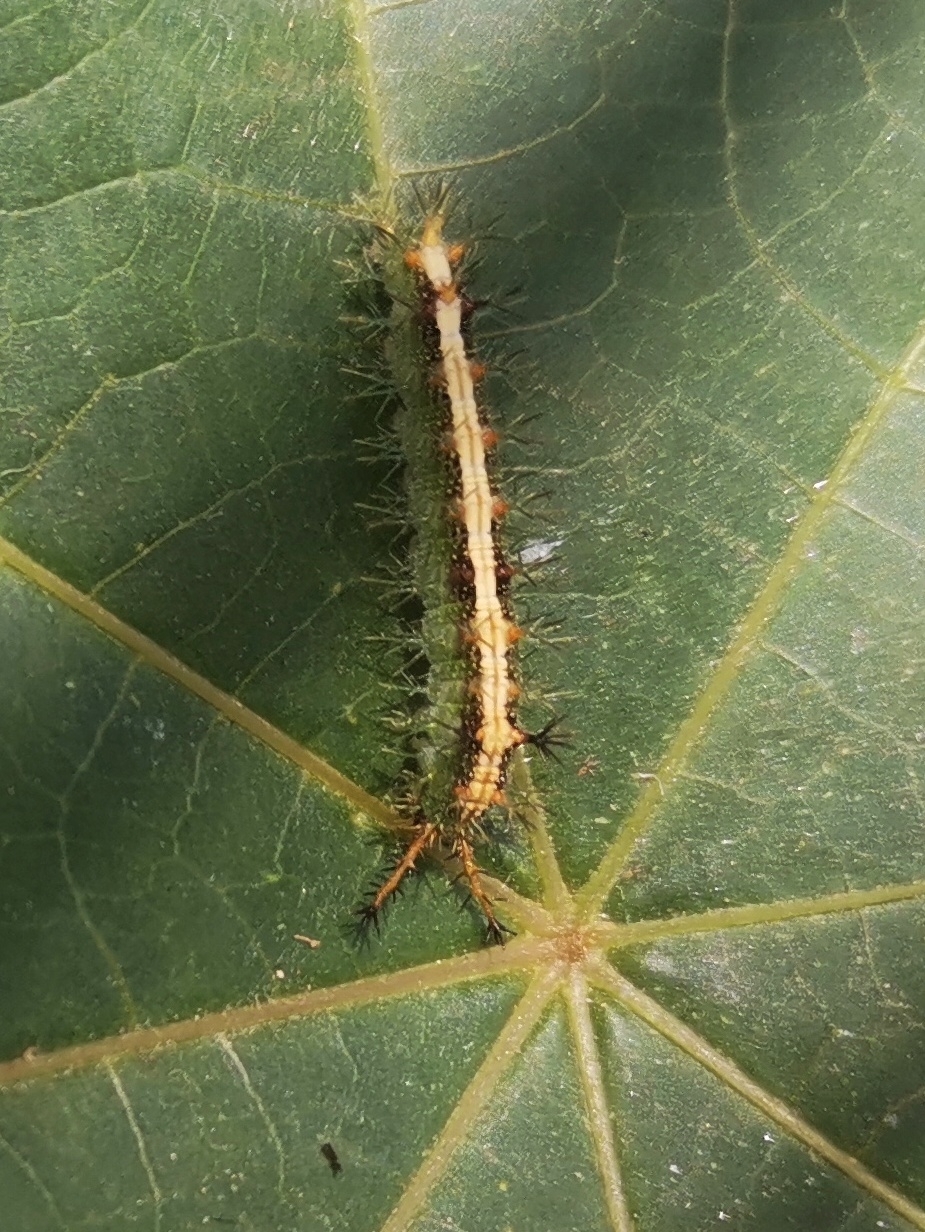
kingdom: Animalia
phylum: Arthropoda
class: Insecta
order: Lepidoptera
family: Nymphalidae
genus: Ariadne
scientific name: Ariadne merione
